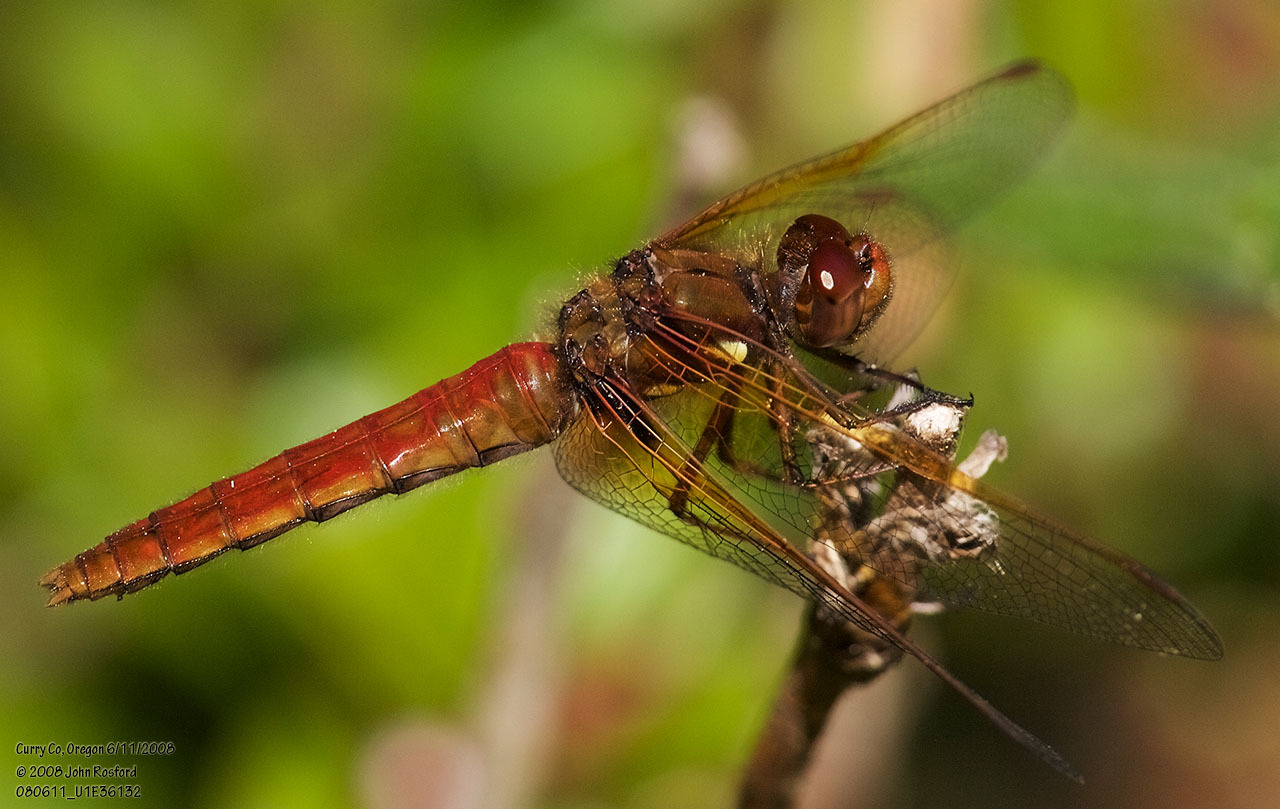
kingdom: Animalia
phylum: Arthropoda
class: Insecta
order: Odonata
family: Libellulidae
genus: Sympetrum
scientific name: Sympetrum illotum
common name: Cardinal meadowhawk
